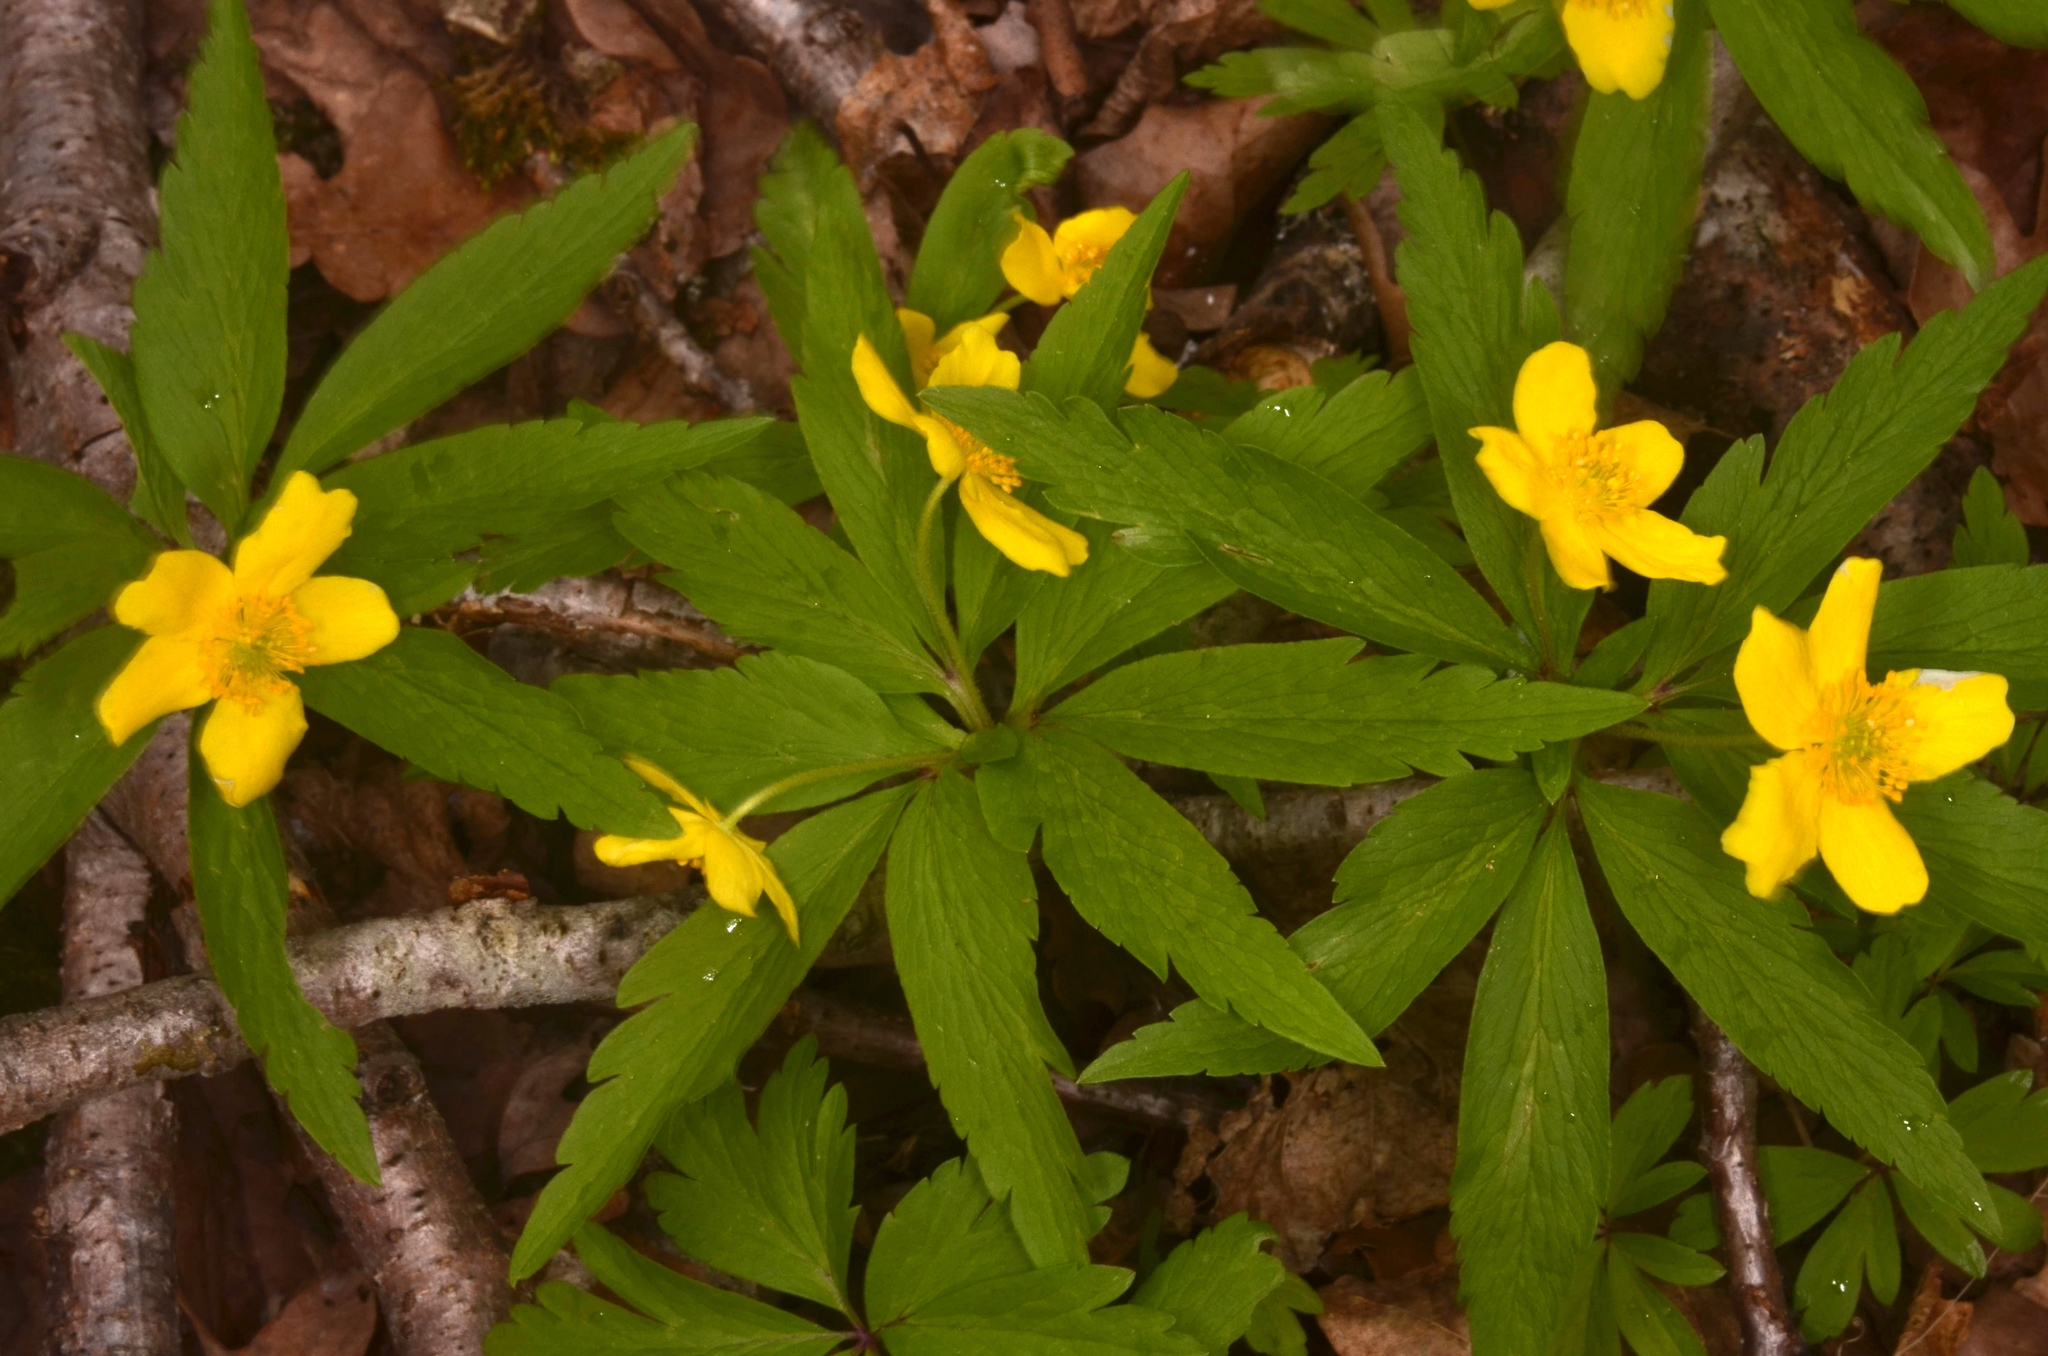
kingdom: Plantae
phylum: Tracheophyta
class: Magnoliopsida
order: Ranunculales
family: Ranunculaceae
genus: Anemone
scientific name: Anemone ranunculoides
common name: Yellow anemone
